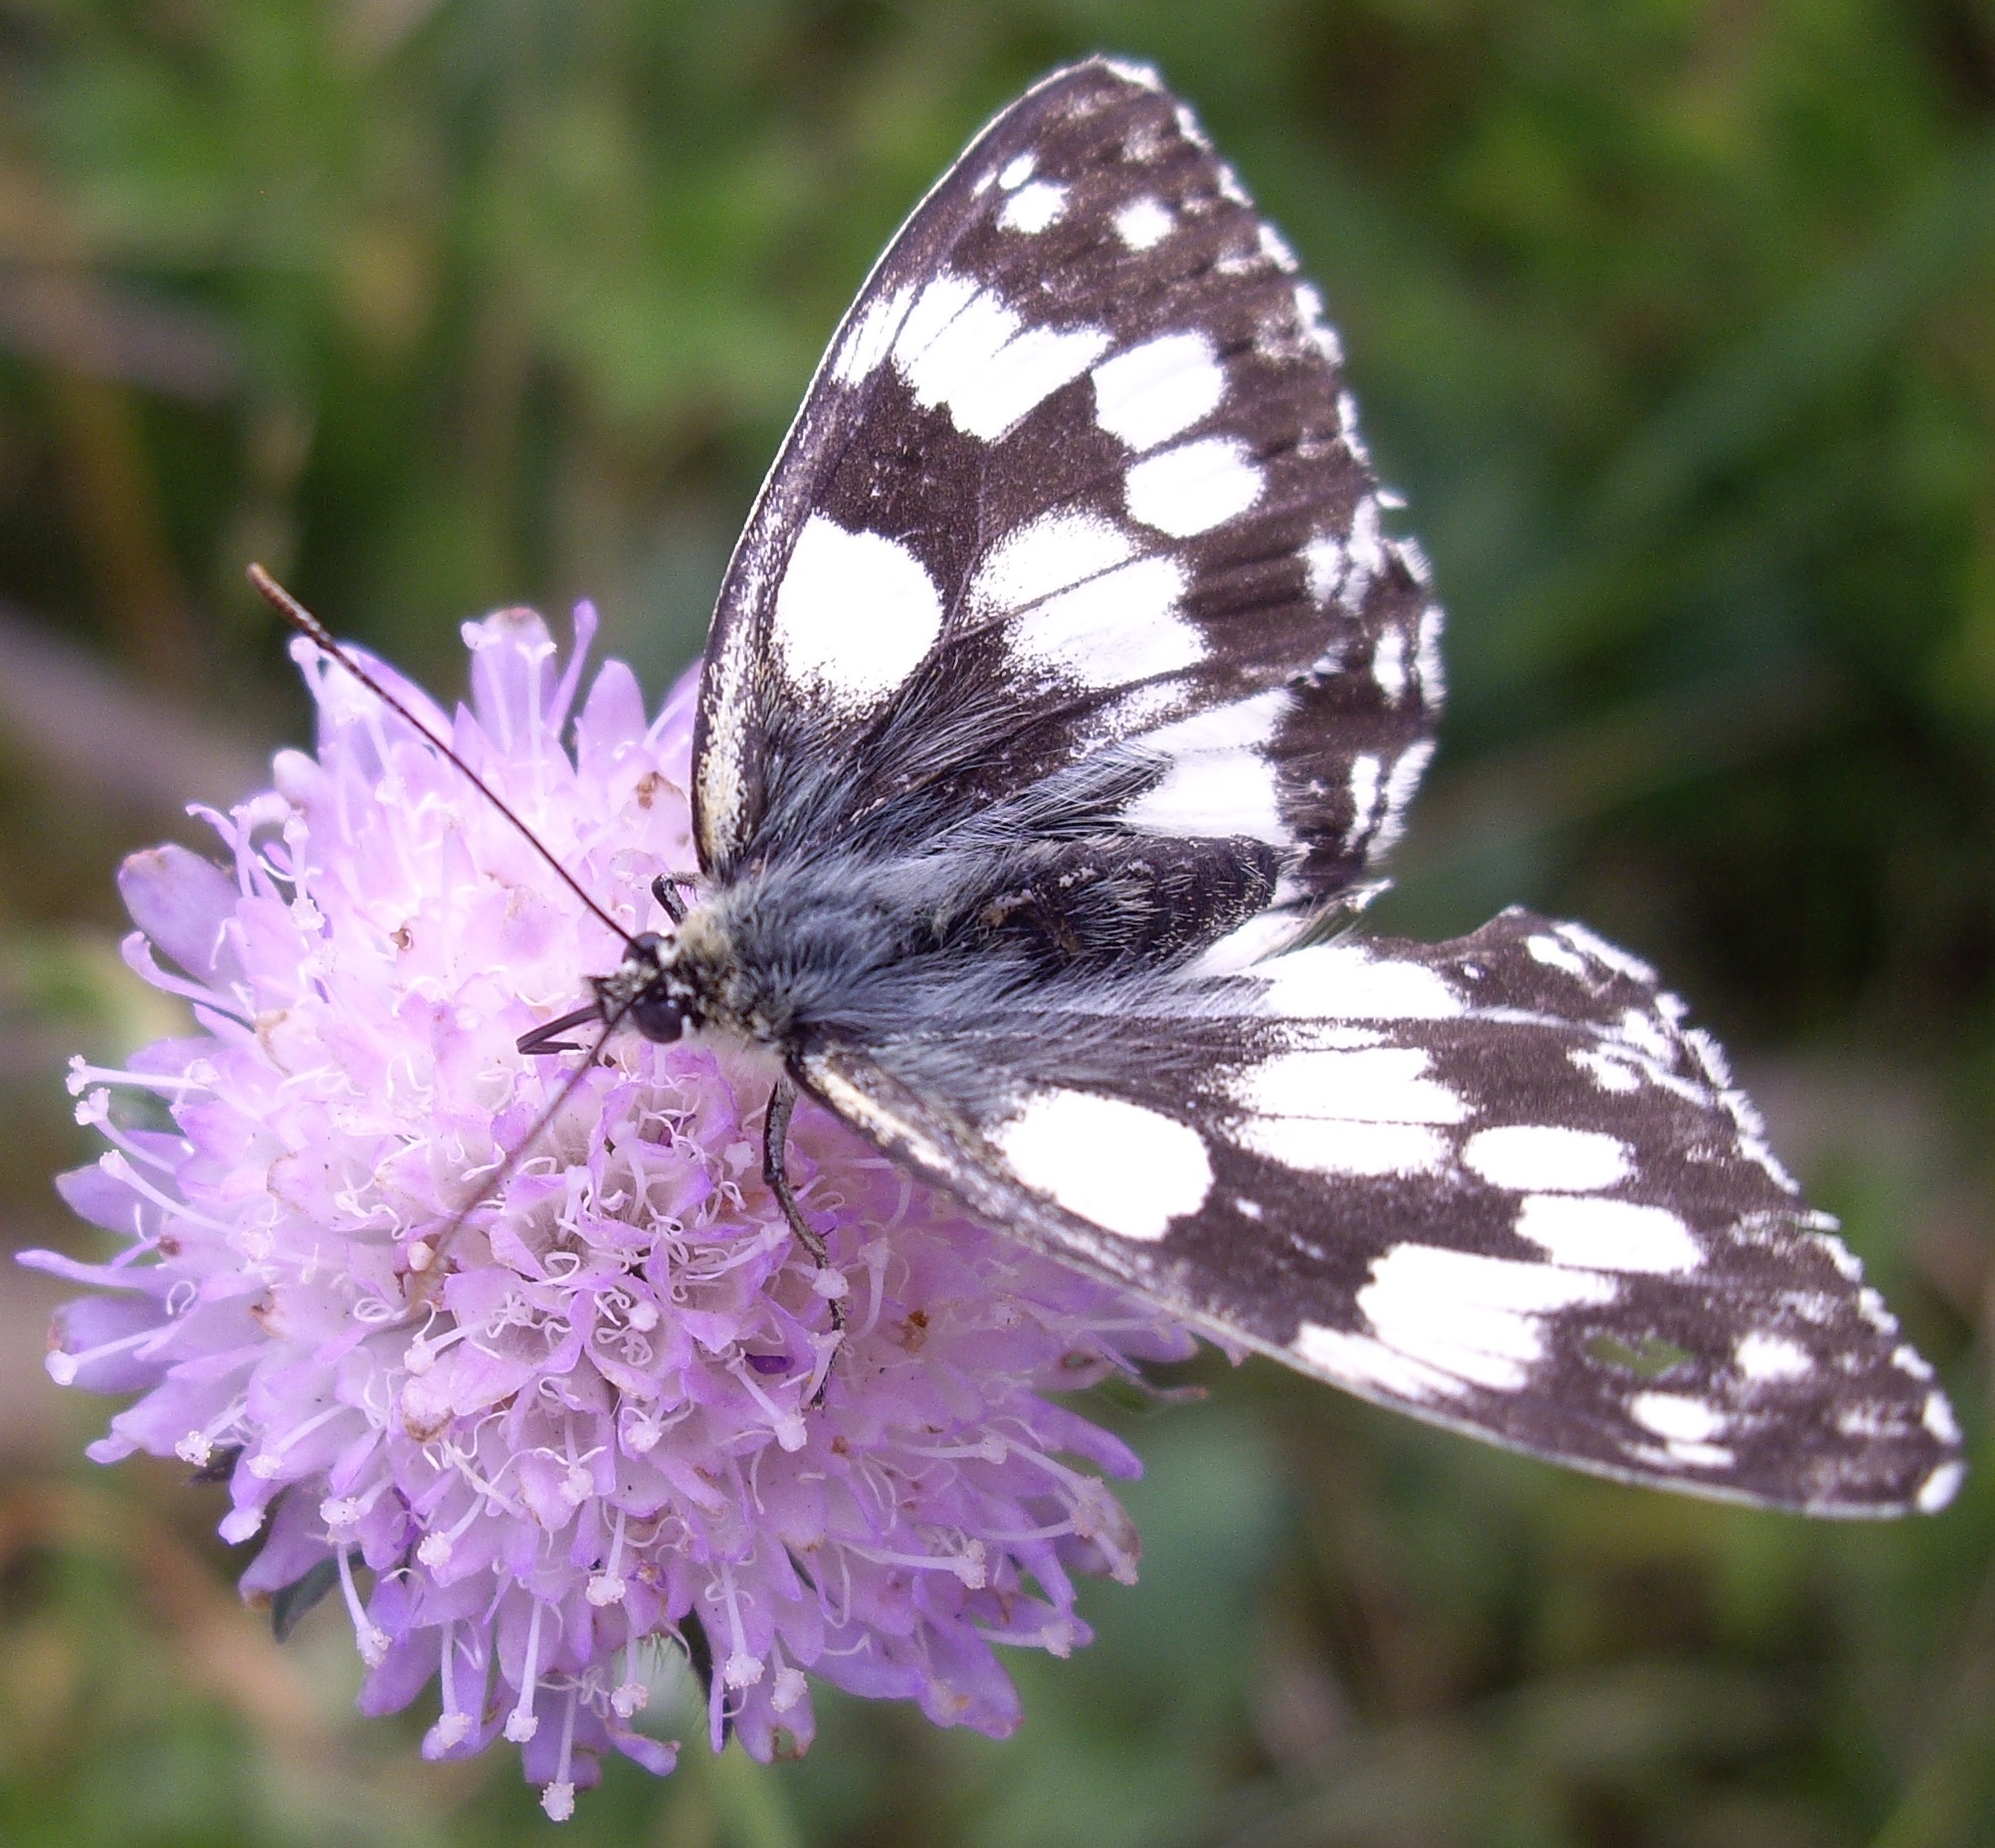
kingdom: Animalia
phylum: Arthropoda
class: Insecta
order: Lepidoptera
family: Nymphalidae
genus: Melanargia
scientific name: Melanargia galathea
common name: Marbled white
